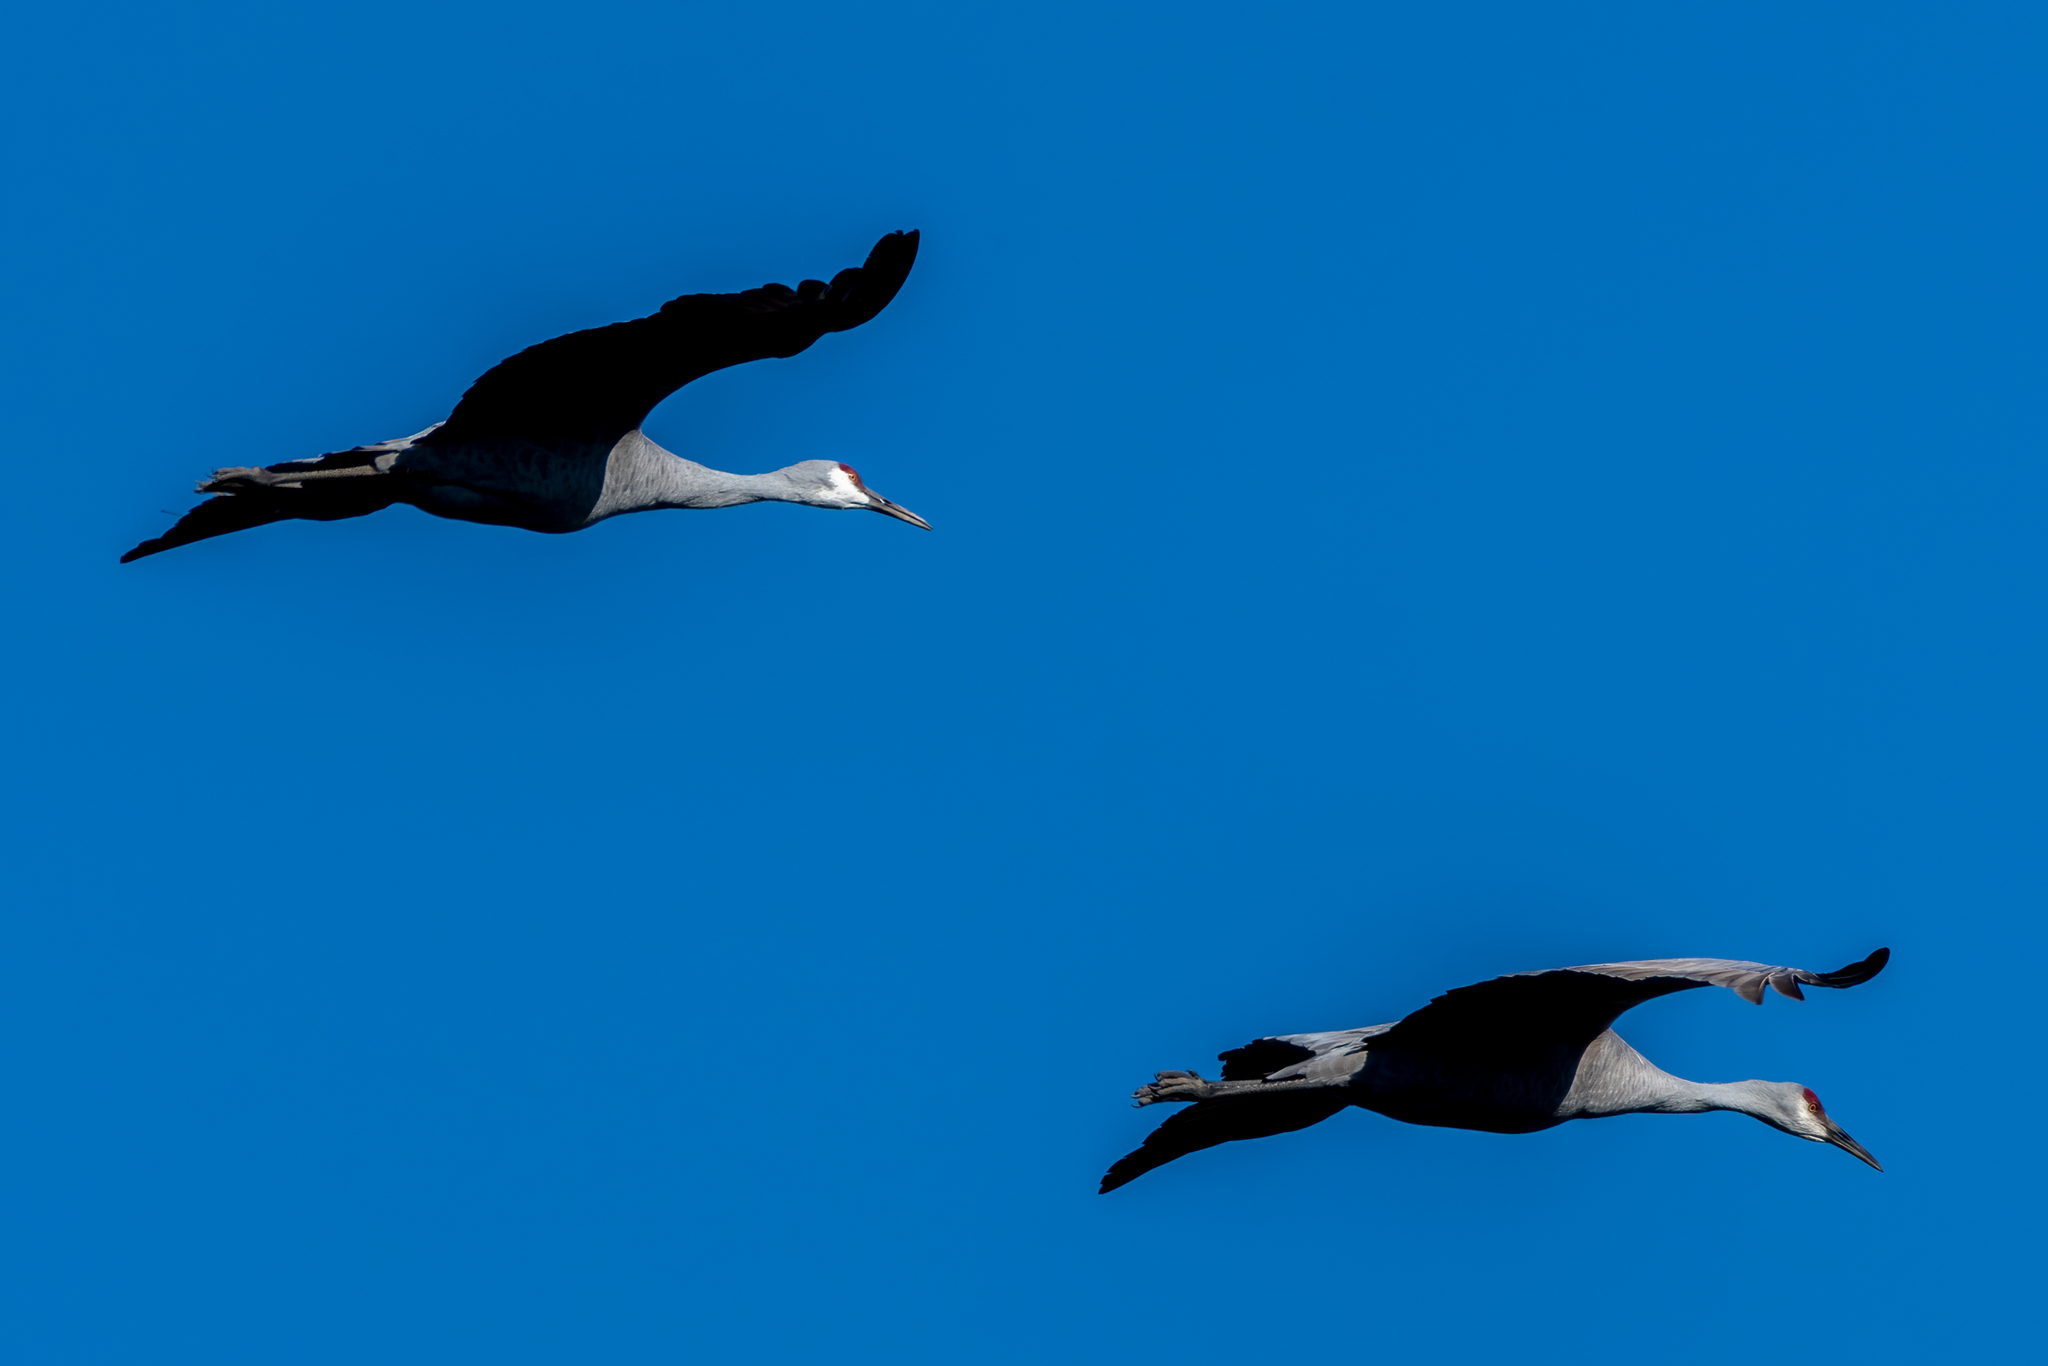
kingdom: Animalia
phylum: Chordata
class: Aves
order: Gruiformes
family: Gruidae
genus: Grus
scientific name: Grus canadensis
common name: Sandhill crane
